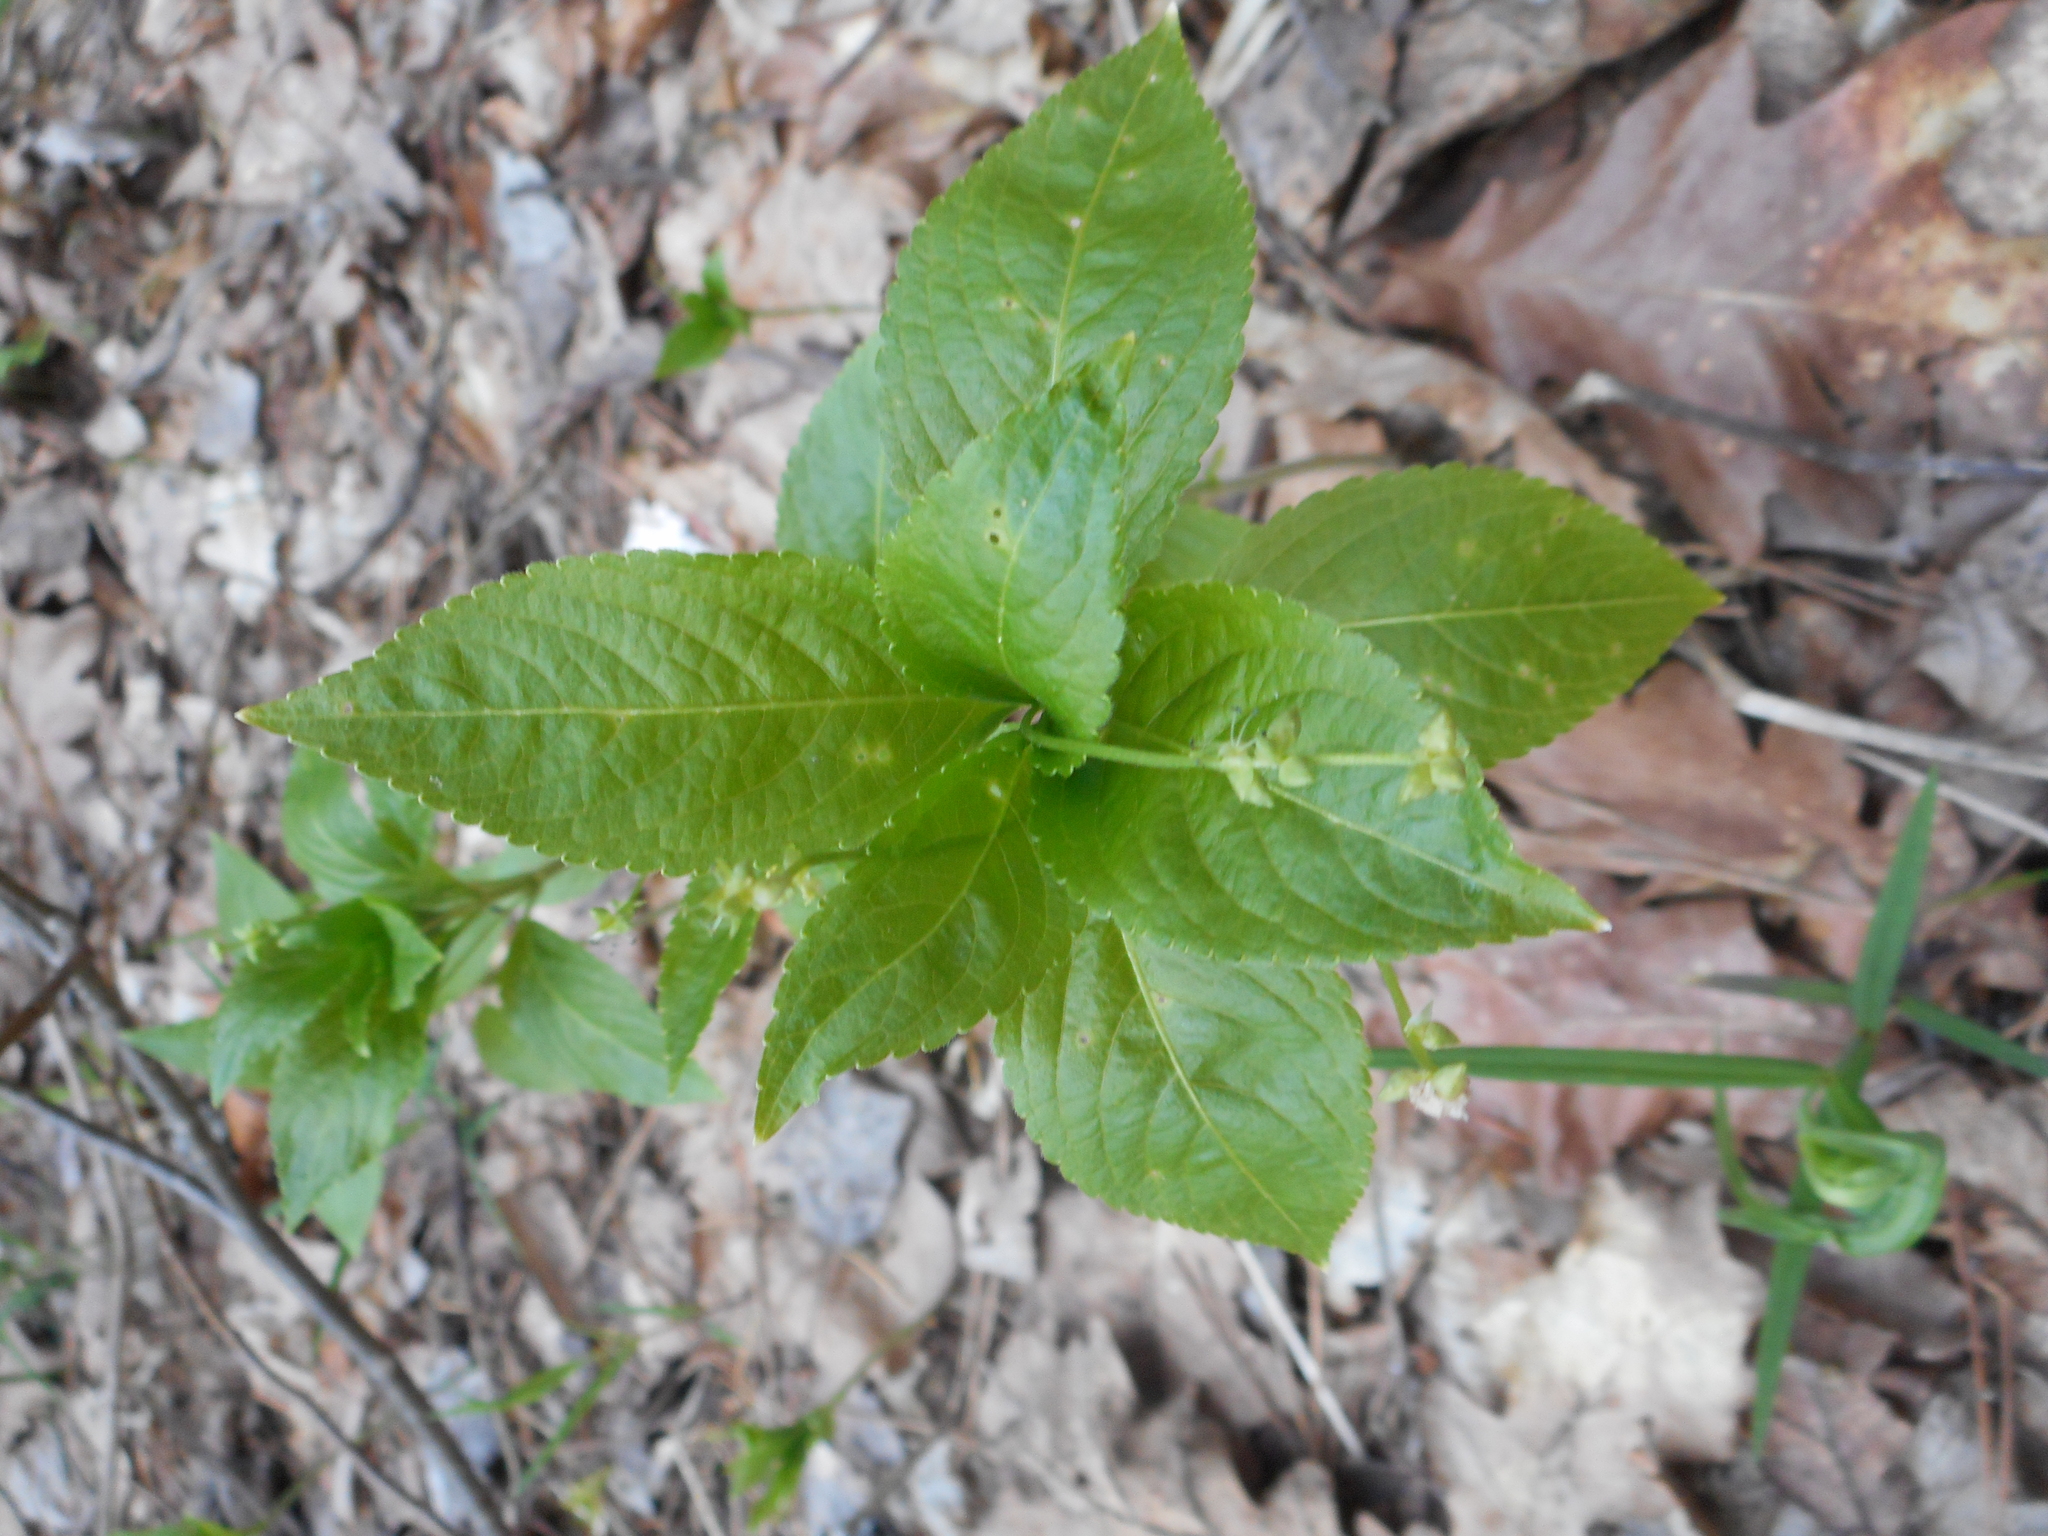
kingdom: Plantae
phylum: Tracheophyta
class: Magnoliopsida
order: Malpighiales
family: Euphorbiaceae
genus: Mercurialis
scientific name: Mercurialis perennis
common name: Dog mercury
